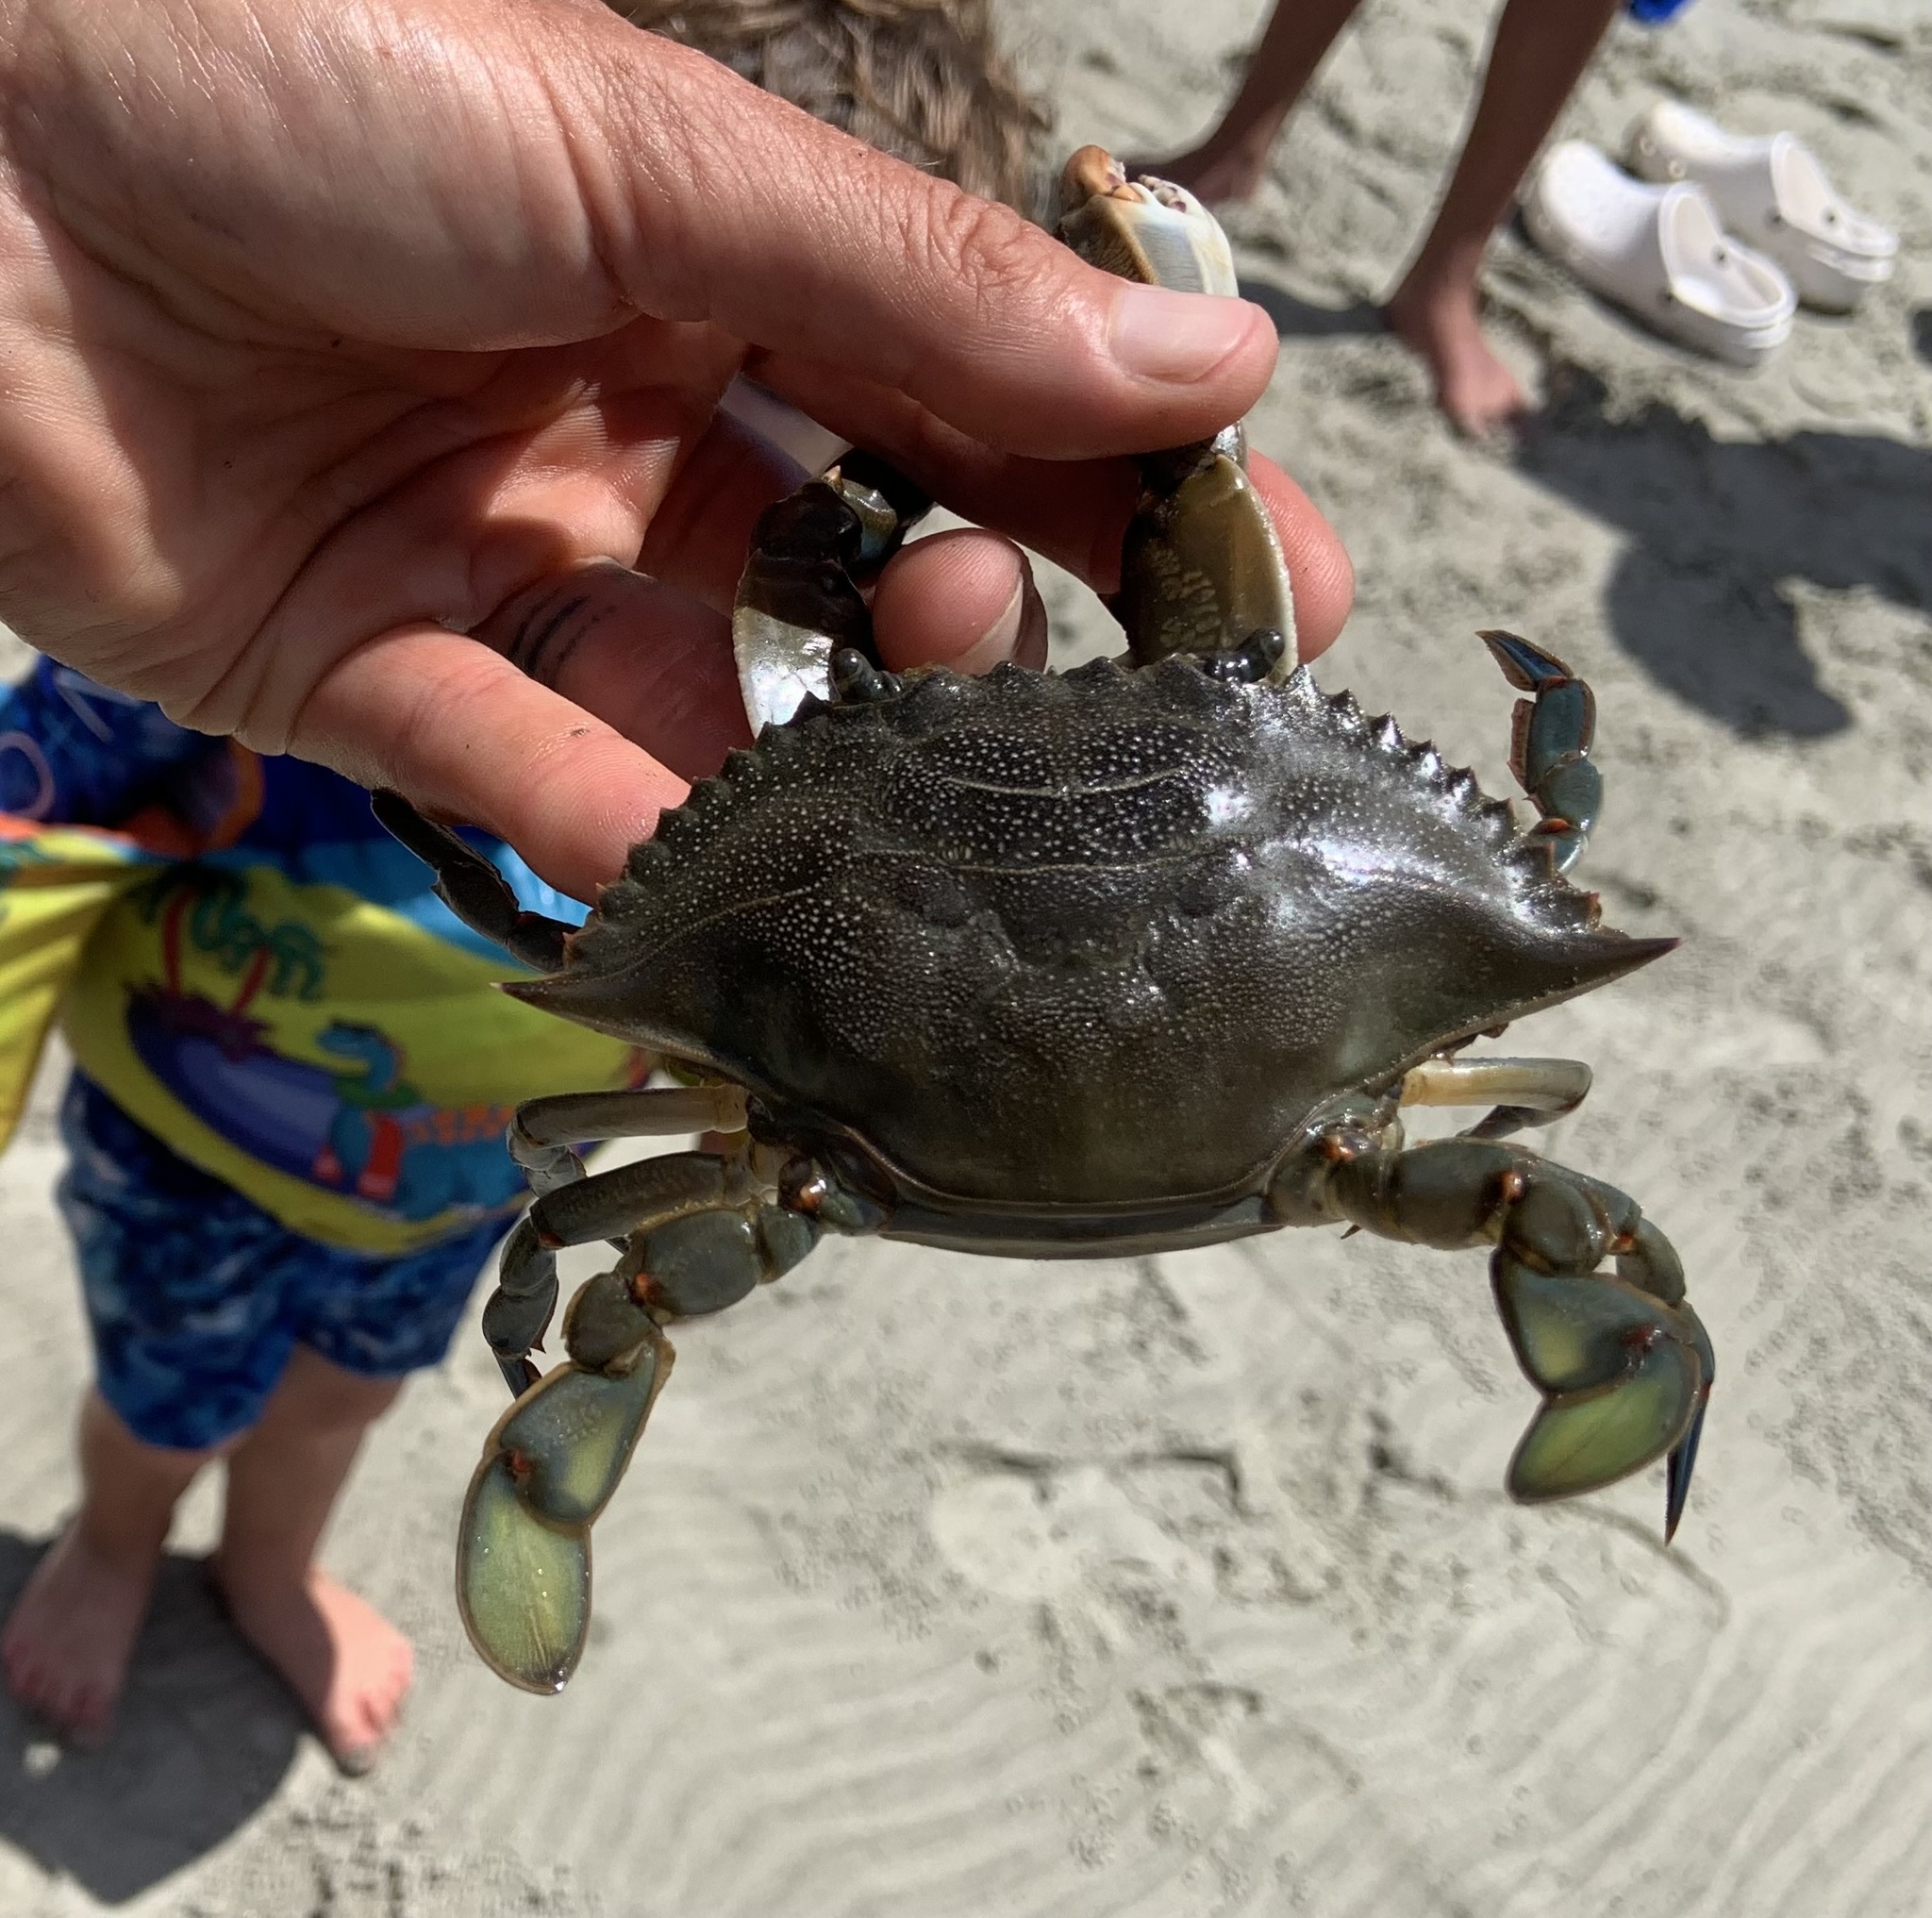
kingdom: Animalia
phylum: Arthropoda
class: Malacostraca
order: Decapoda
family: Portunidae
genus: Callinectes
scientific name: Callinectes sapidus
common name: Blue crab
